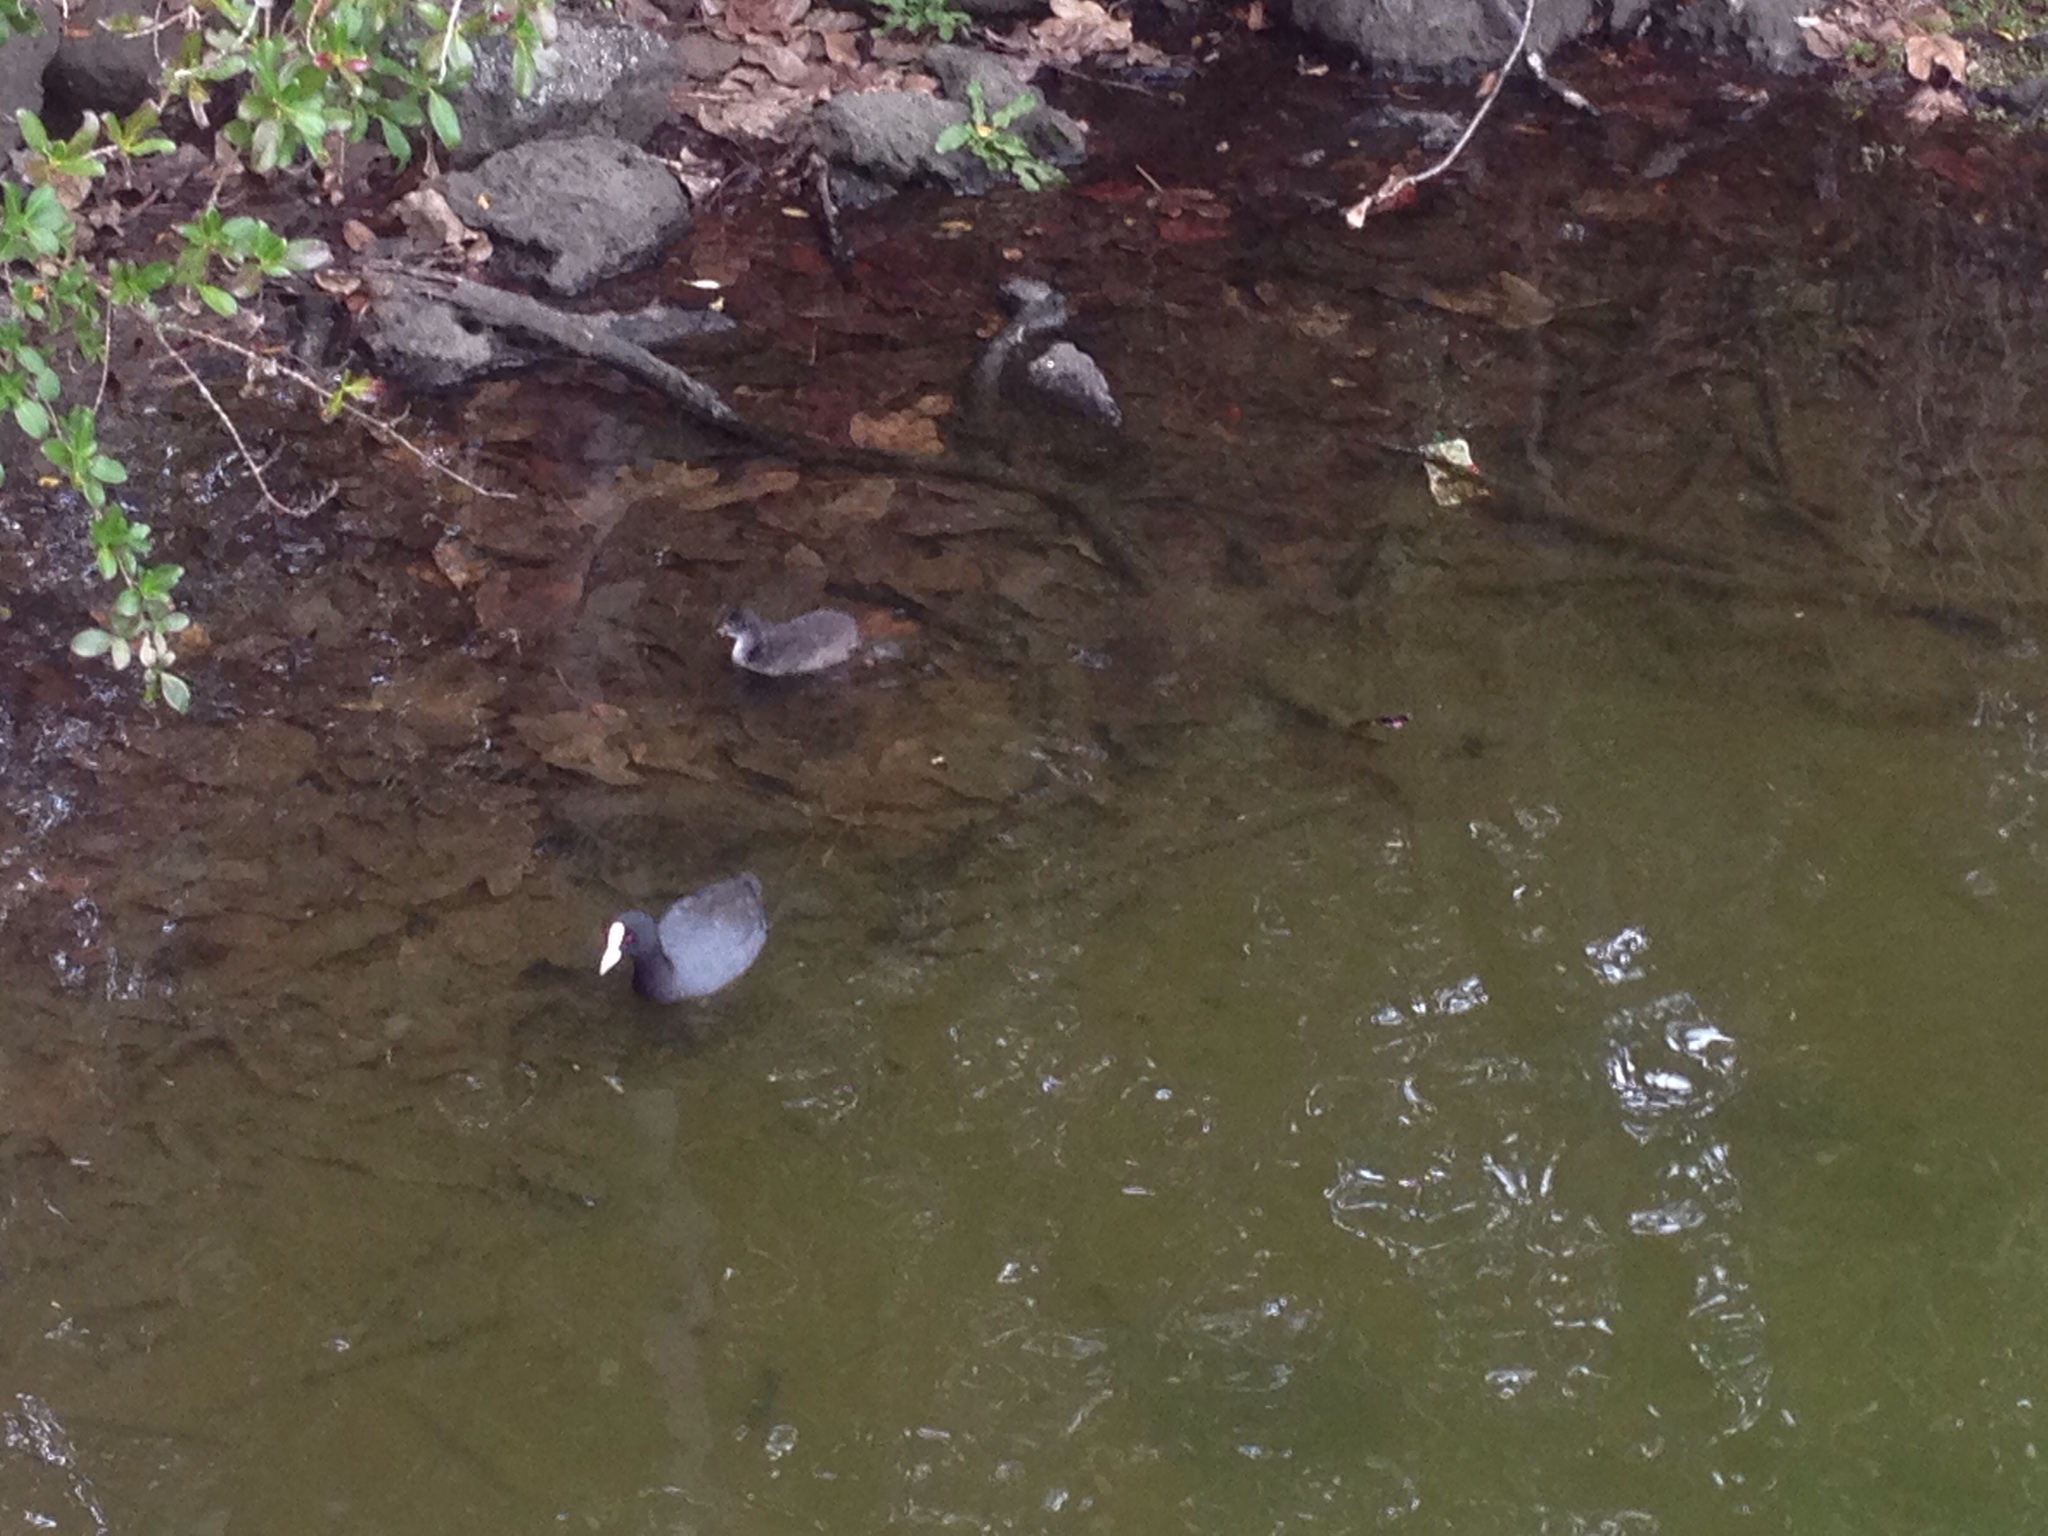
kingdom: Animalia
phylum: Chordata
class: Aves
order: Gruiformes
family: Rallidae
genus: Fulica
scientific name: Fulica atra
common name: Eurasian coot
